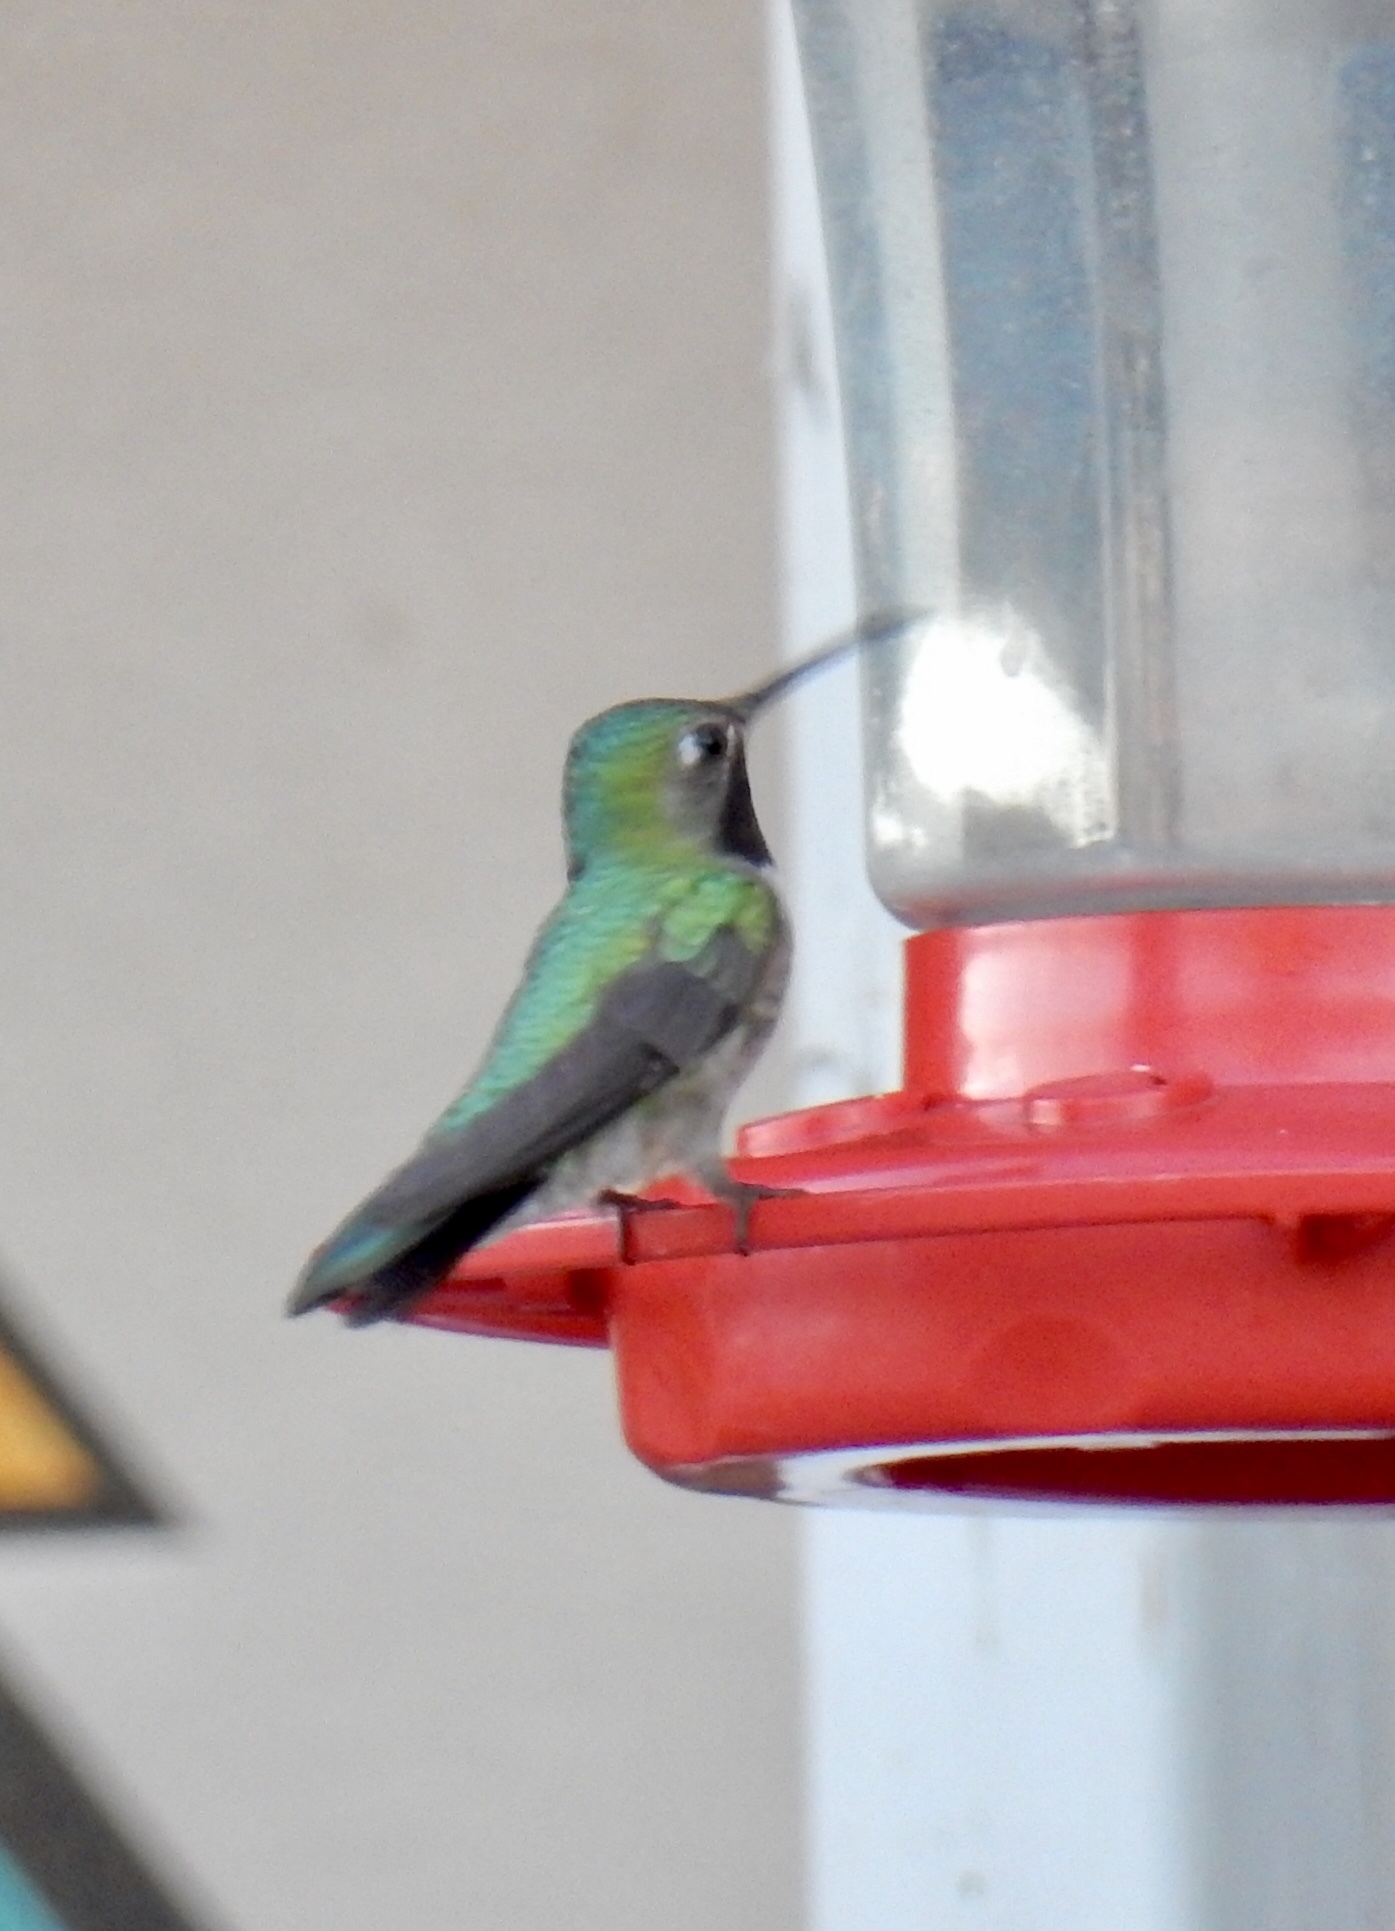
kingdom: Animalia
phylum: Chordata
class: Aves
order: Apodiformes
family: Trochilidae
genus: Selasphorus
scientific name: Selasphorus platycercus
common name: Broad-tailed hummingbird
